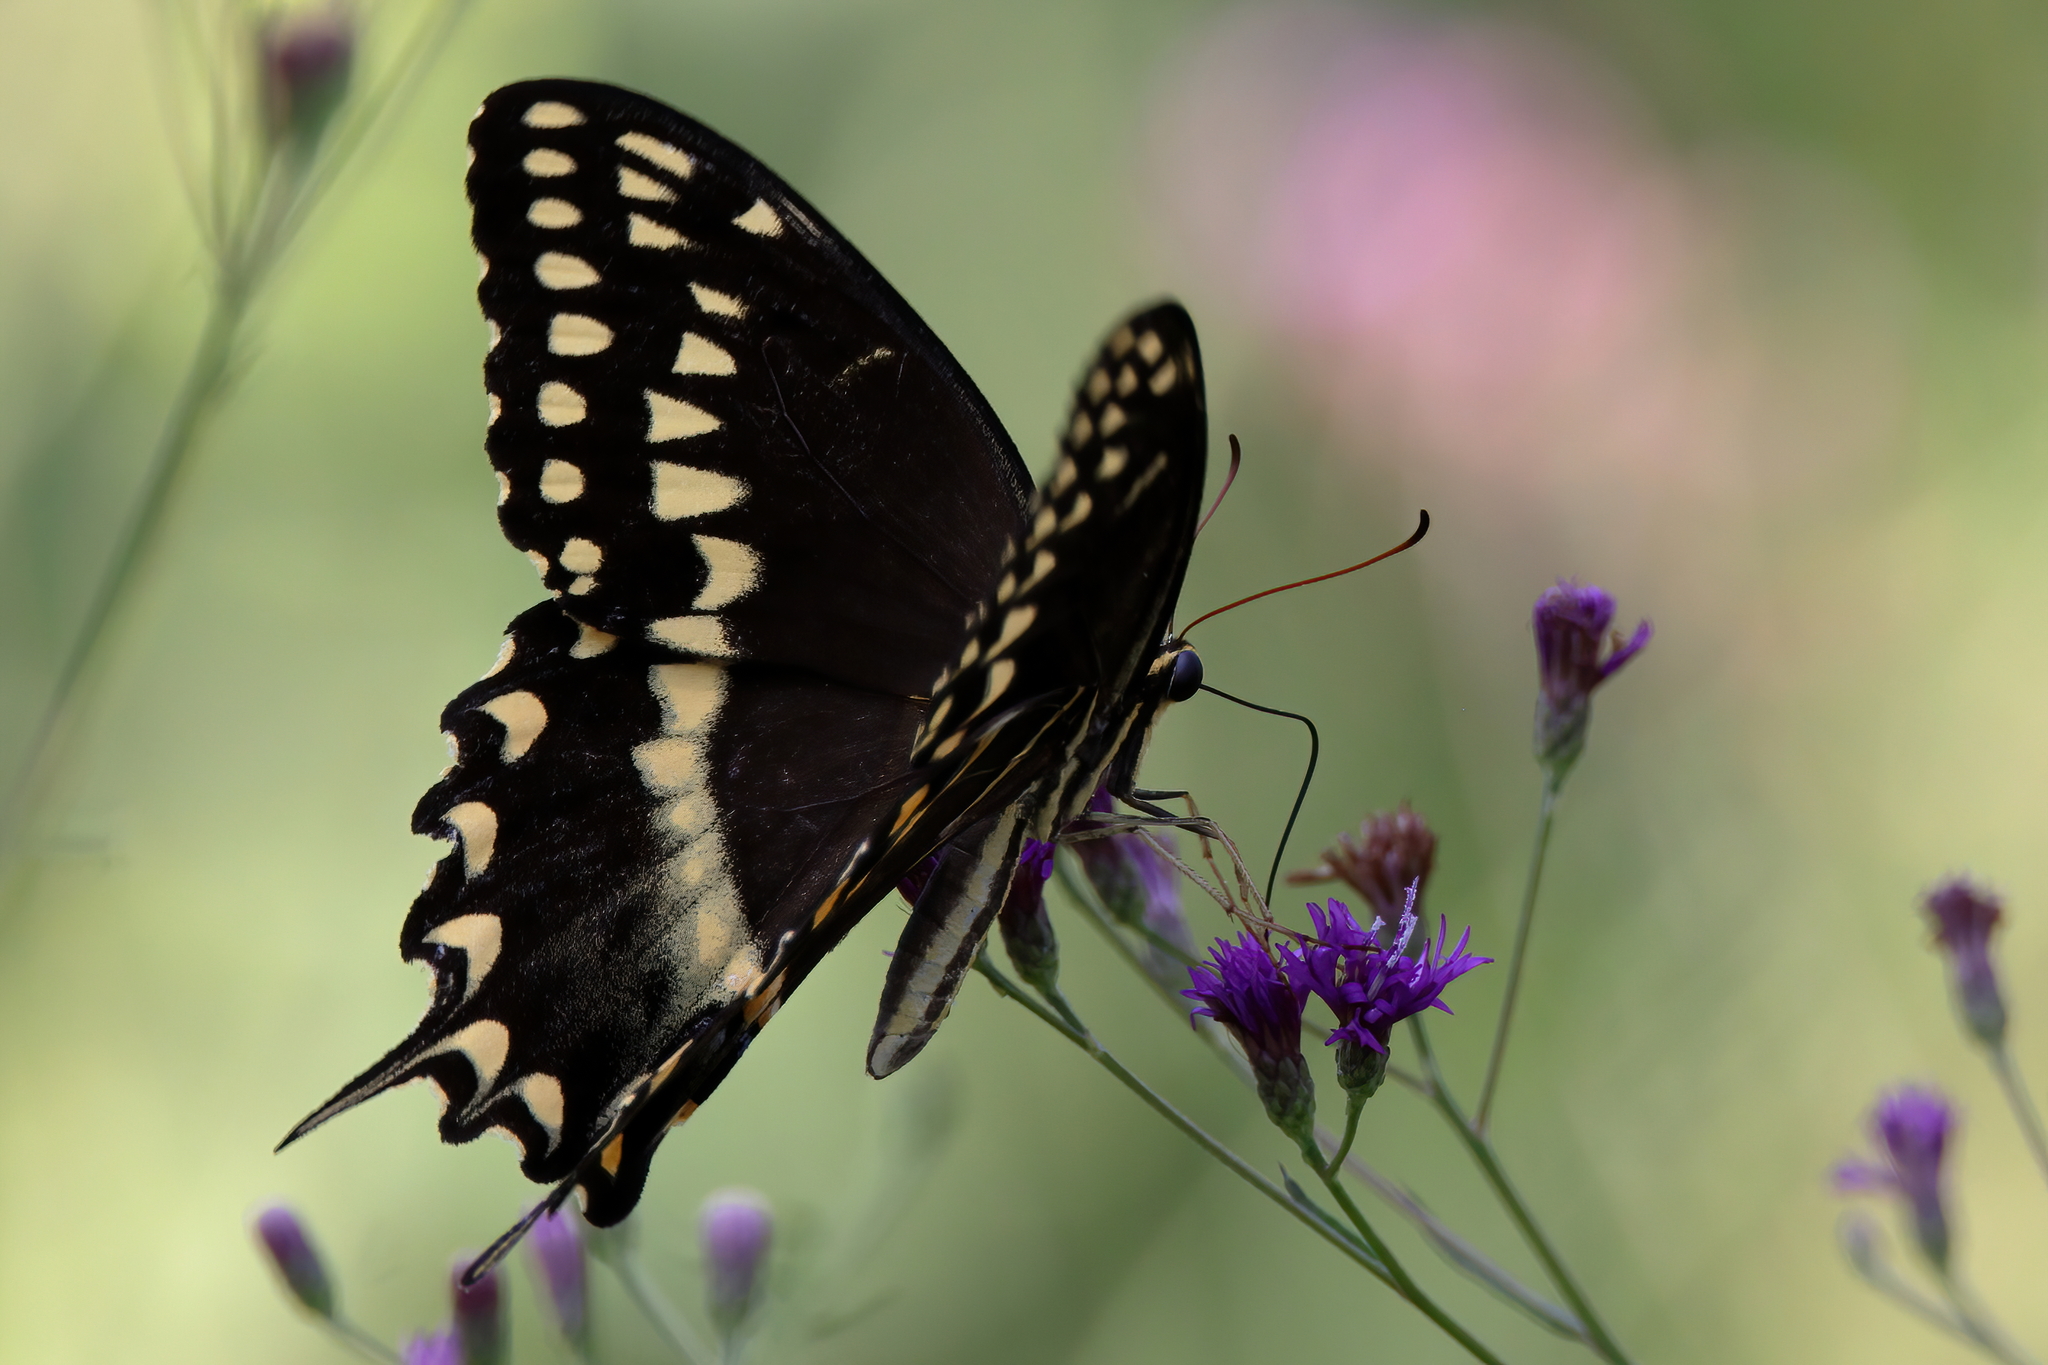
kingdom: Animalia
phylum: Arthropoda
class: Insecta
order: Lepidoptera
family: Papilionidae
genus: Papilio
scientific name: Papilio palamedes
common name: Palamedes swallowtail
